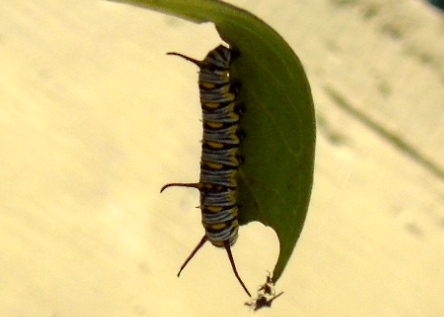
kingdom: Animalia
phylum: Arthropoda
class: Insecta
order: Lepidoptera
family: Nymphalidae
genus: Danaus
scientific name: Danaus gilippus
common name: Queen
